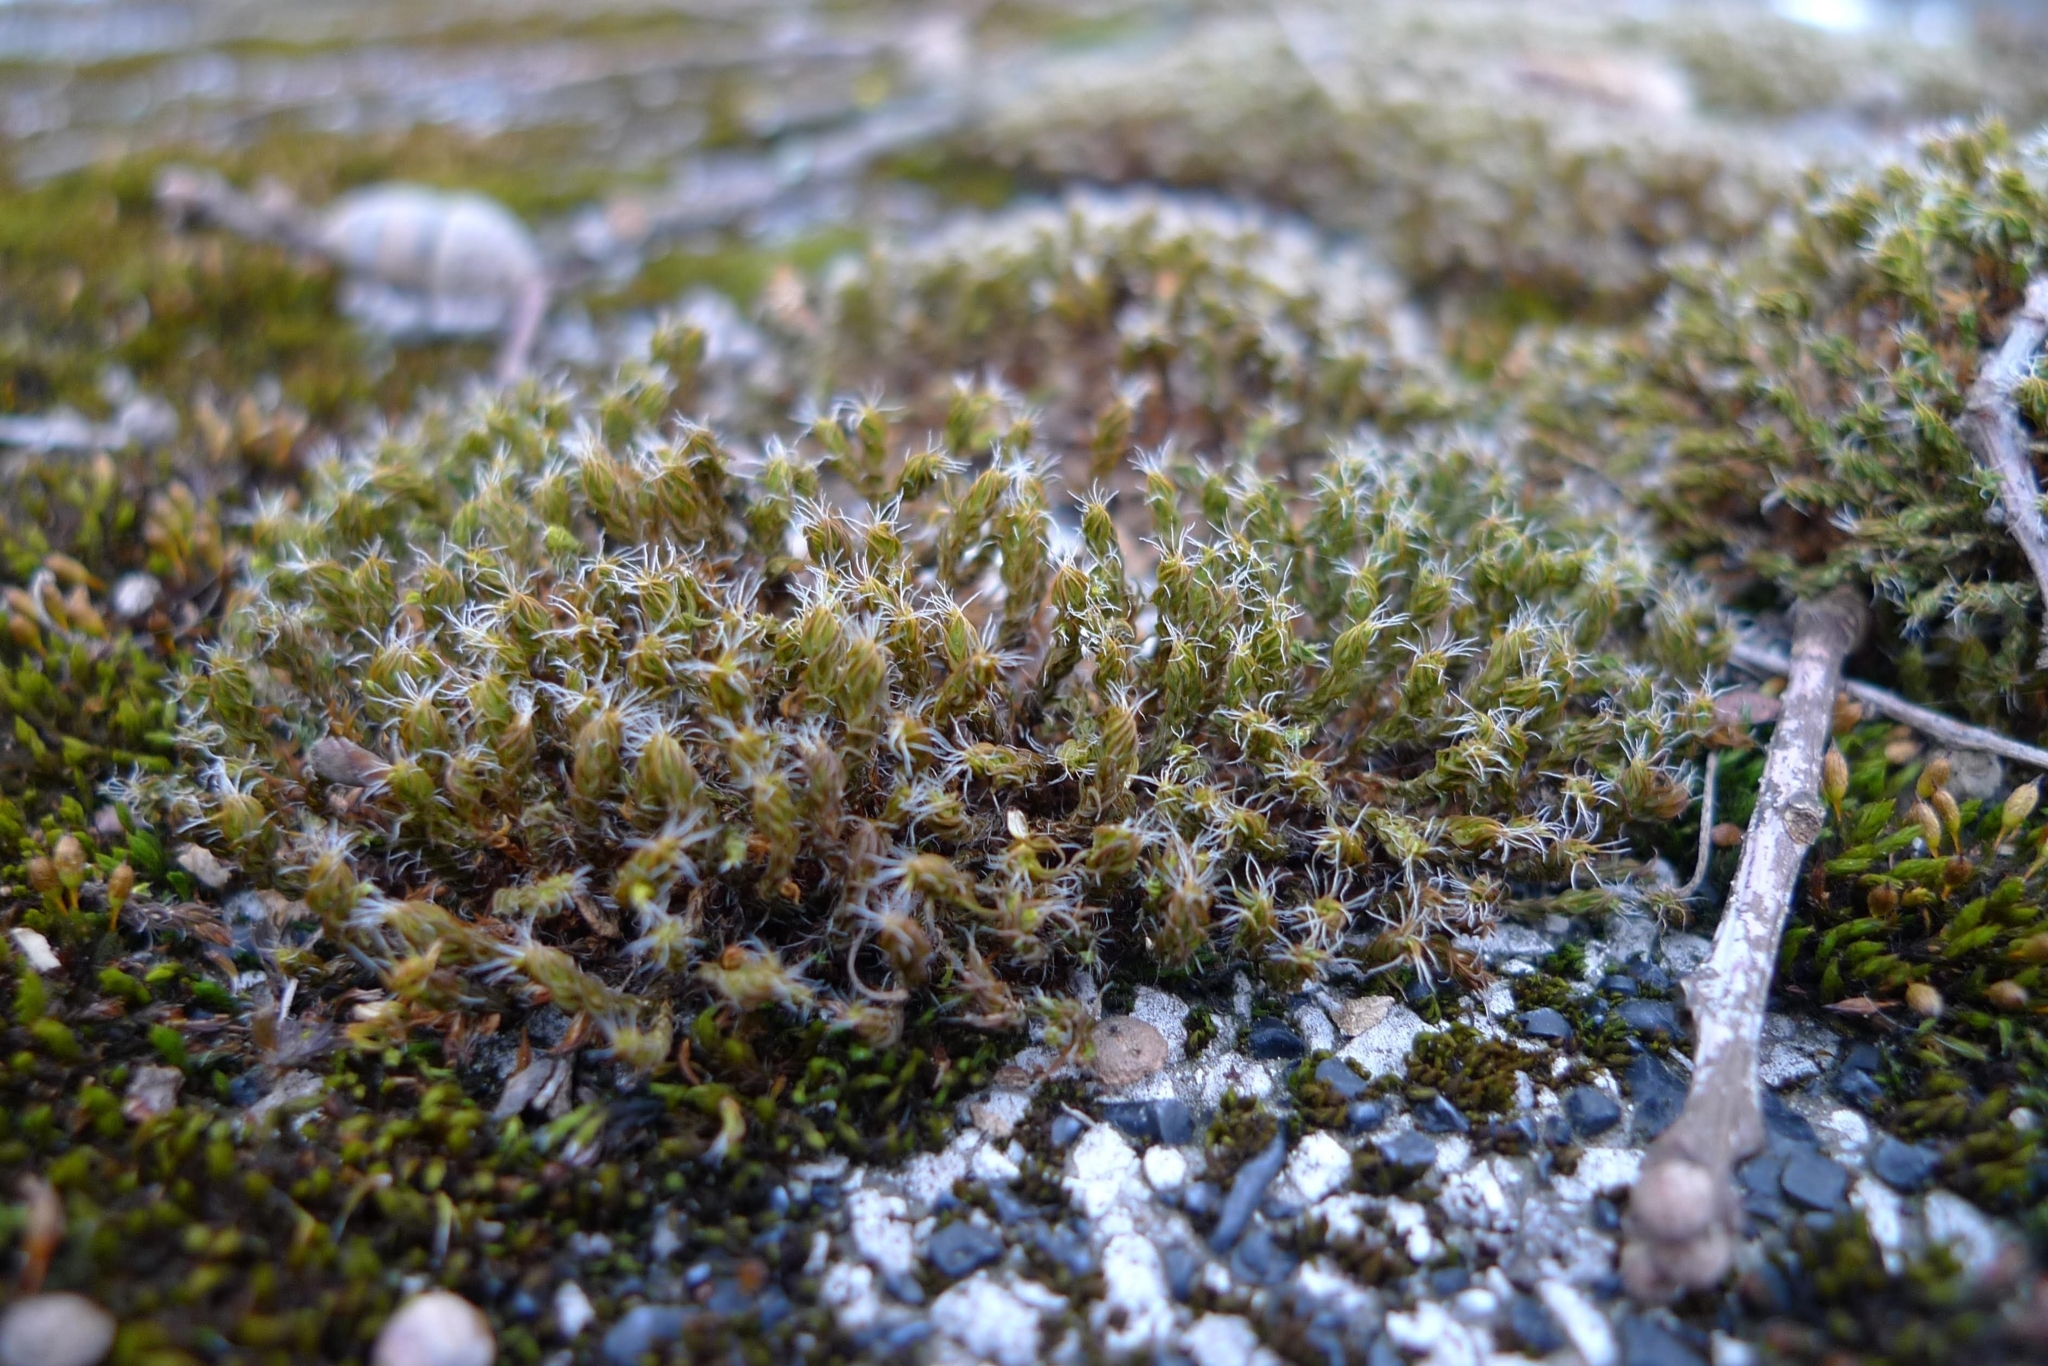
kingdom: Plantae
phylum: Bryophyta
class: Bryopsida
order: Pottiales
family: Pottiaceae
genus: Syntrichia
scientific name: Syntrichia ruralis
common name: Sidewalk screw moss
